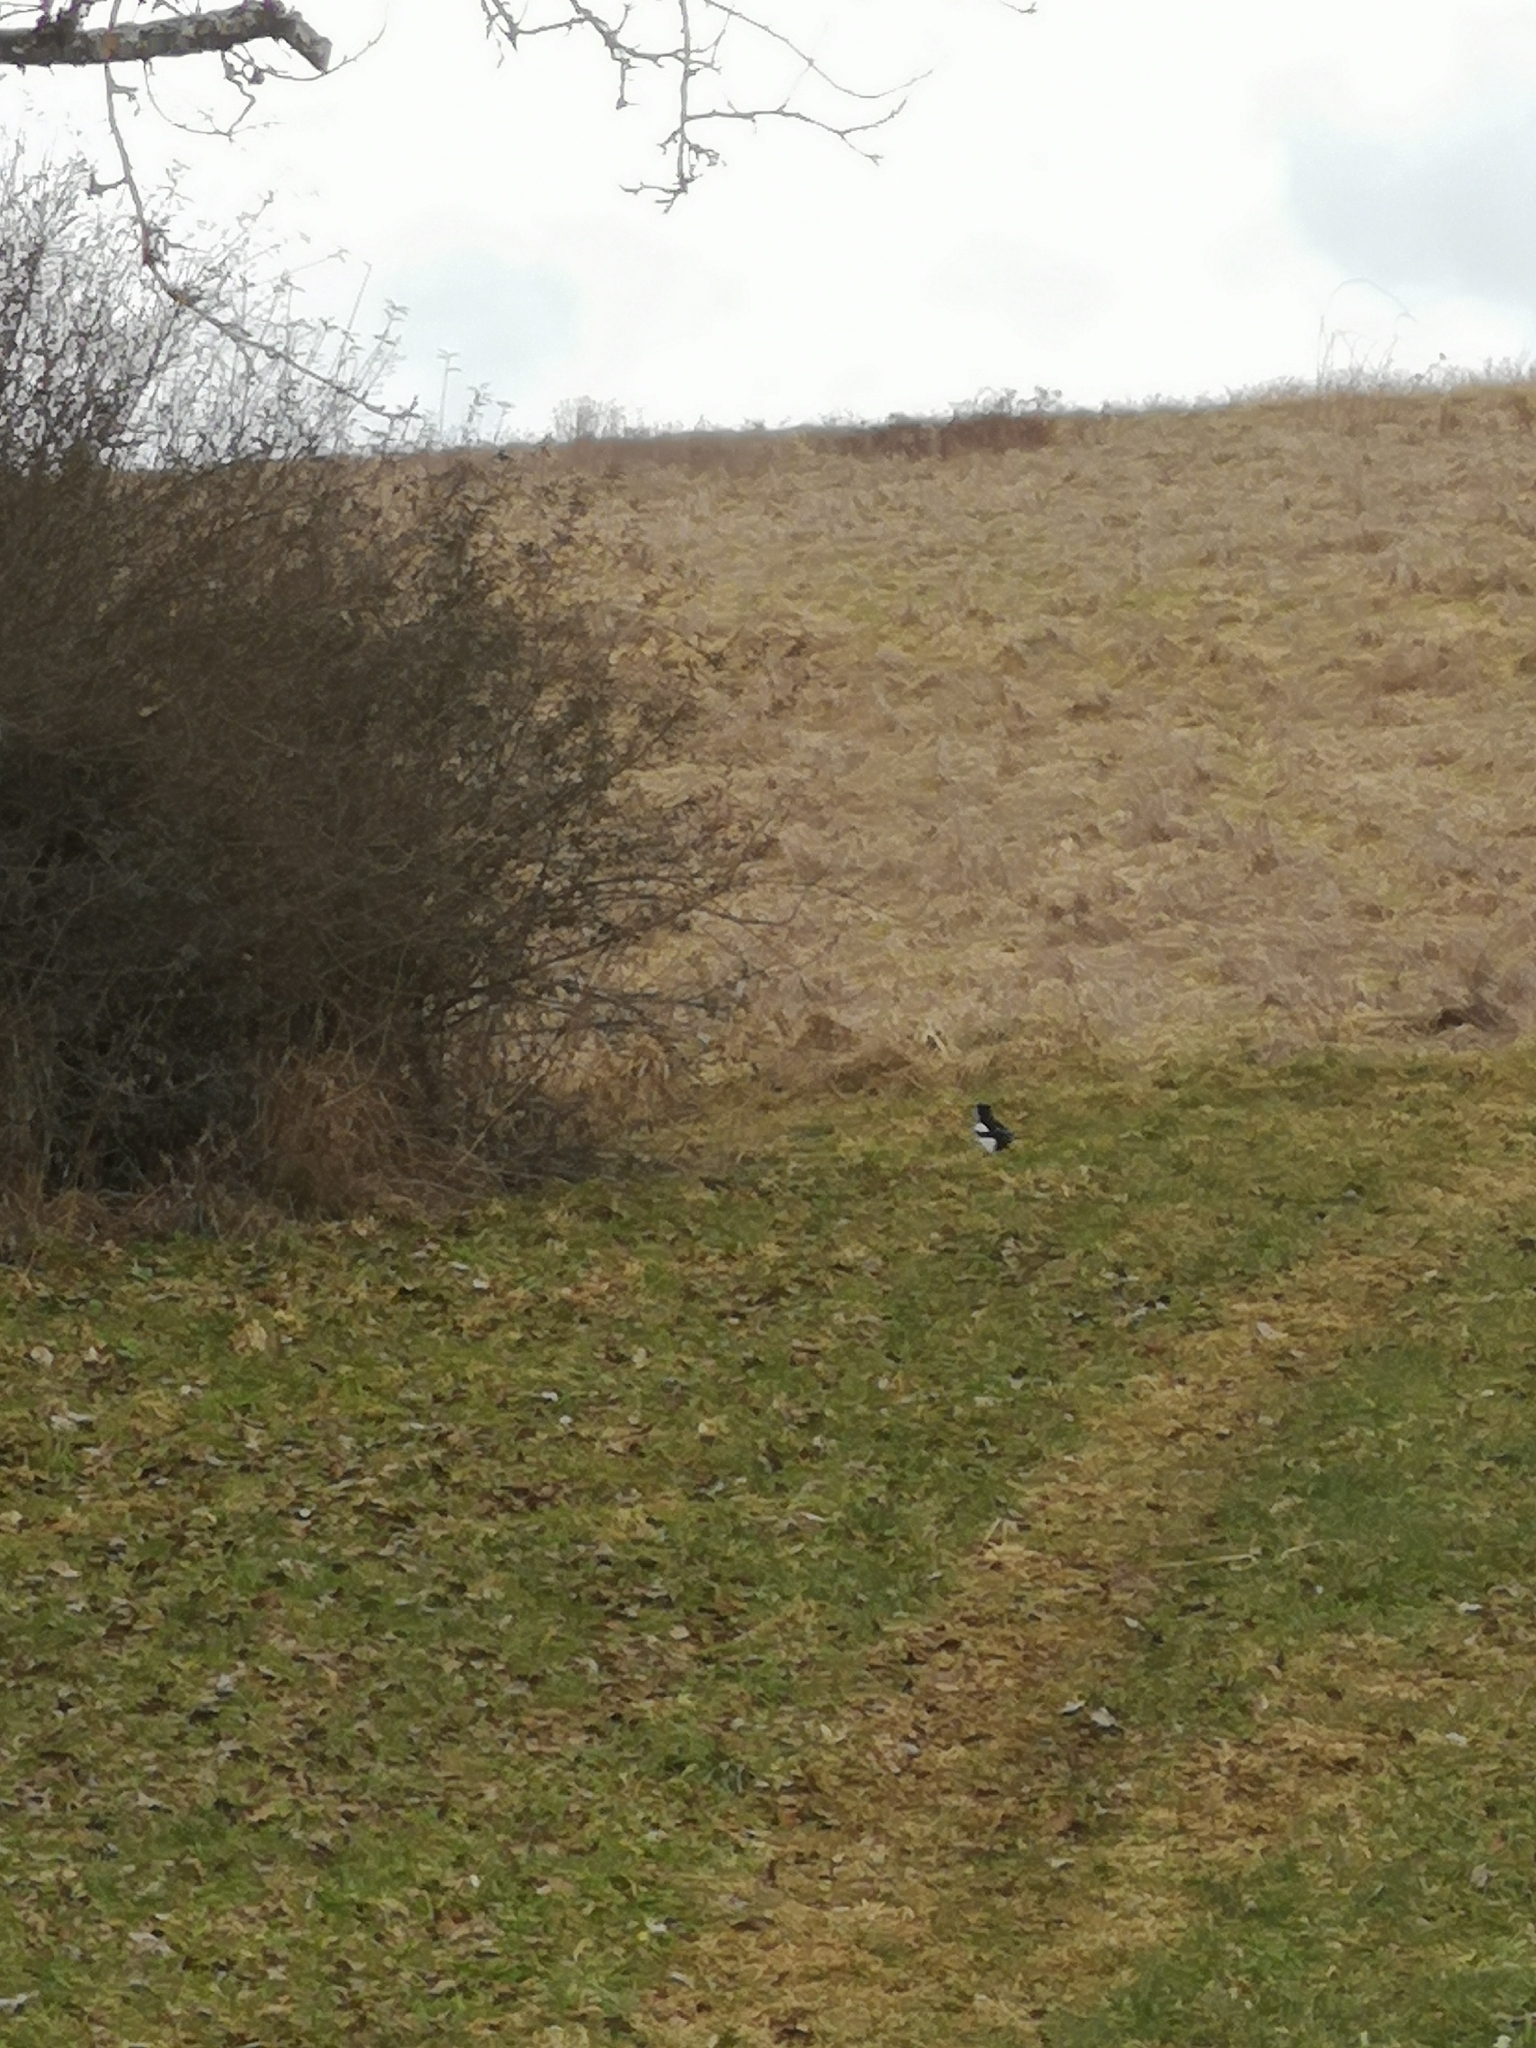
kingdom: Animalia
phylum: Chordata
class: Aves
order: Passeriformes
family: Corvidae
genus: Pica
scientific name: Pica pica
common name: Eurasian magpie
